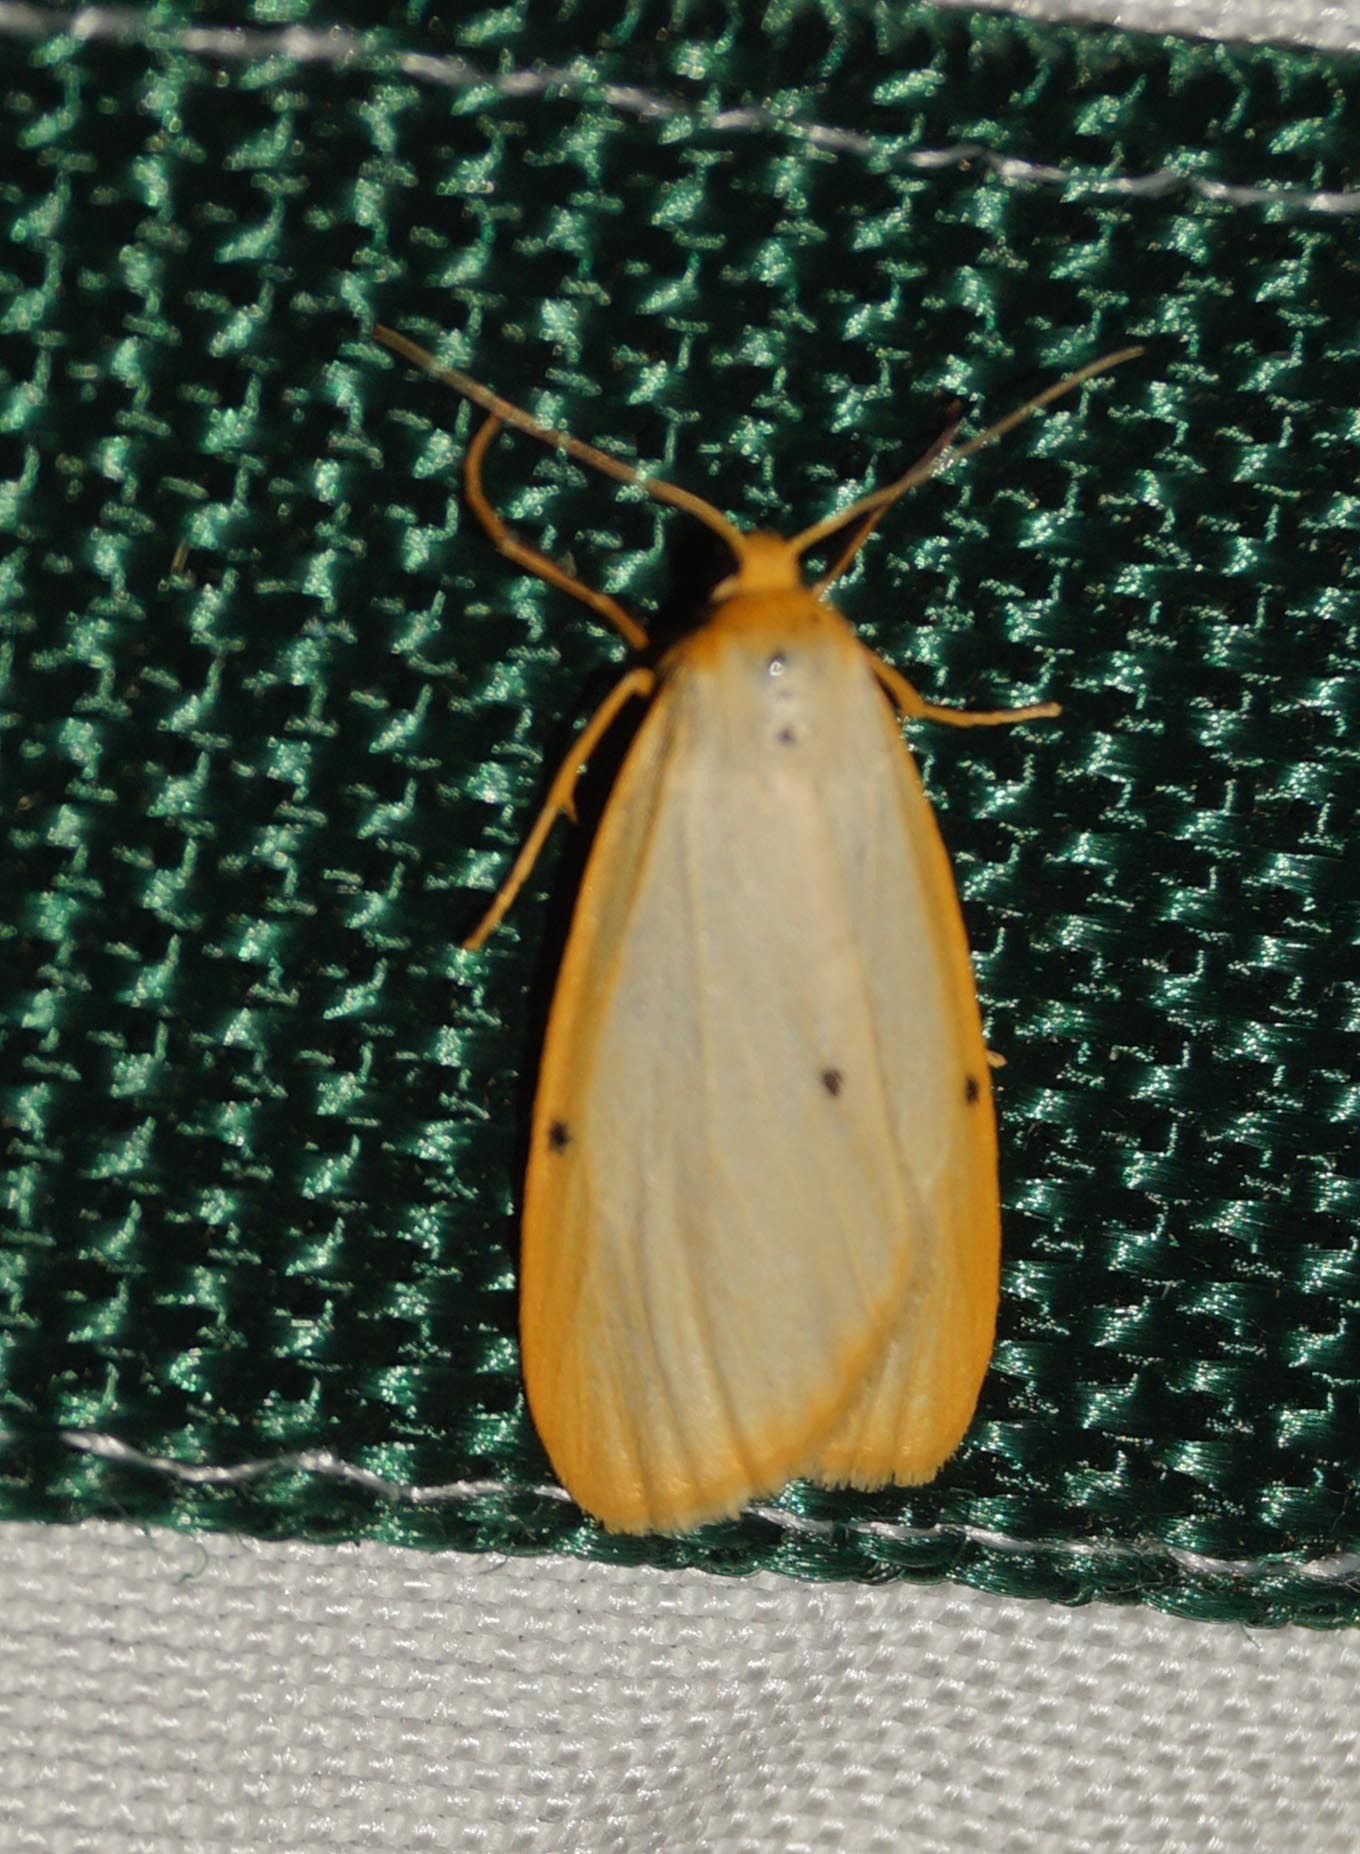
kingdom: Animalia
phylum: Arthropoda
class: Insecta
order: Lepidoptera
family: Erebidae
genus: Cybosia
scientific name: Cybosia mesomella
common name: Four-dotted footman
